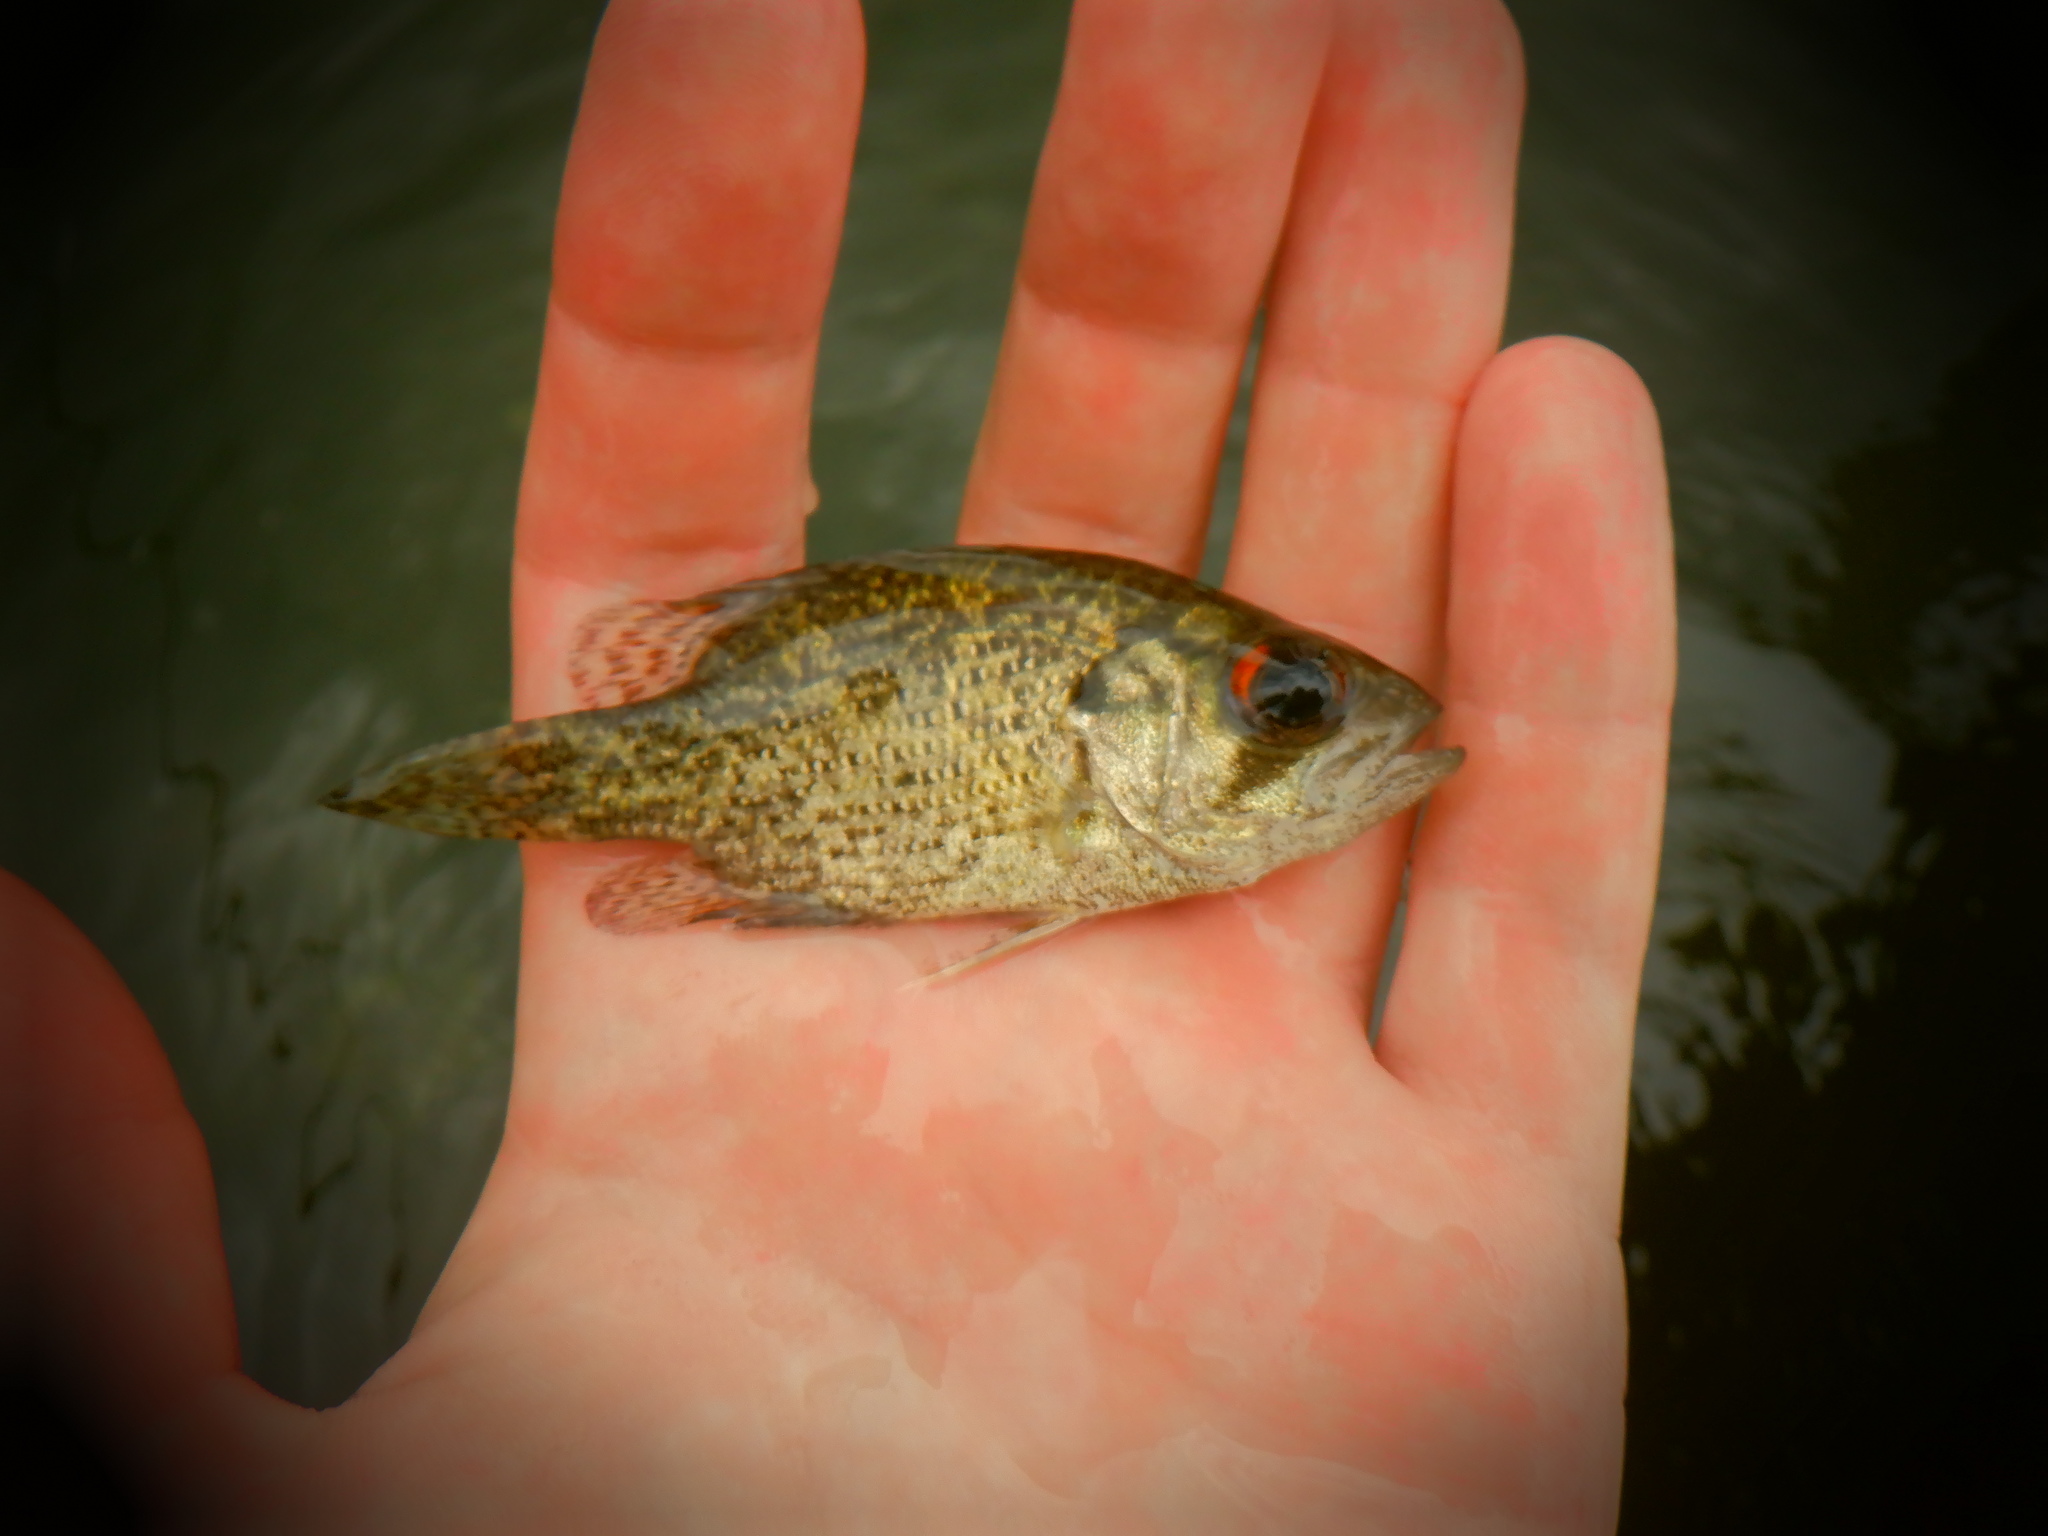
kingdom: Animalia
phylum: Chordata
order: Perciformes
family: Centrarchidae
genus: Ambloplites
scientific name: Ambloplites rupestris
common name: Rock bass
